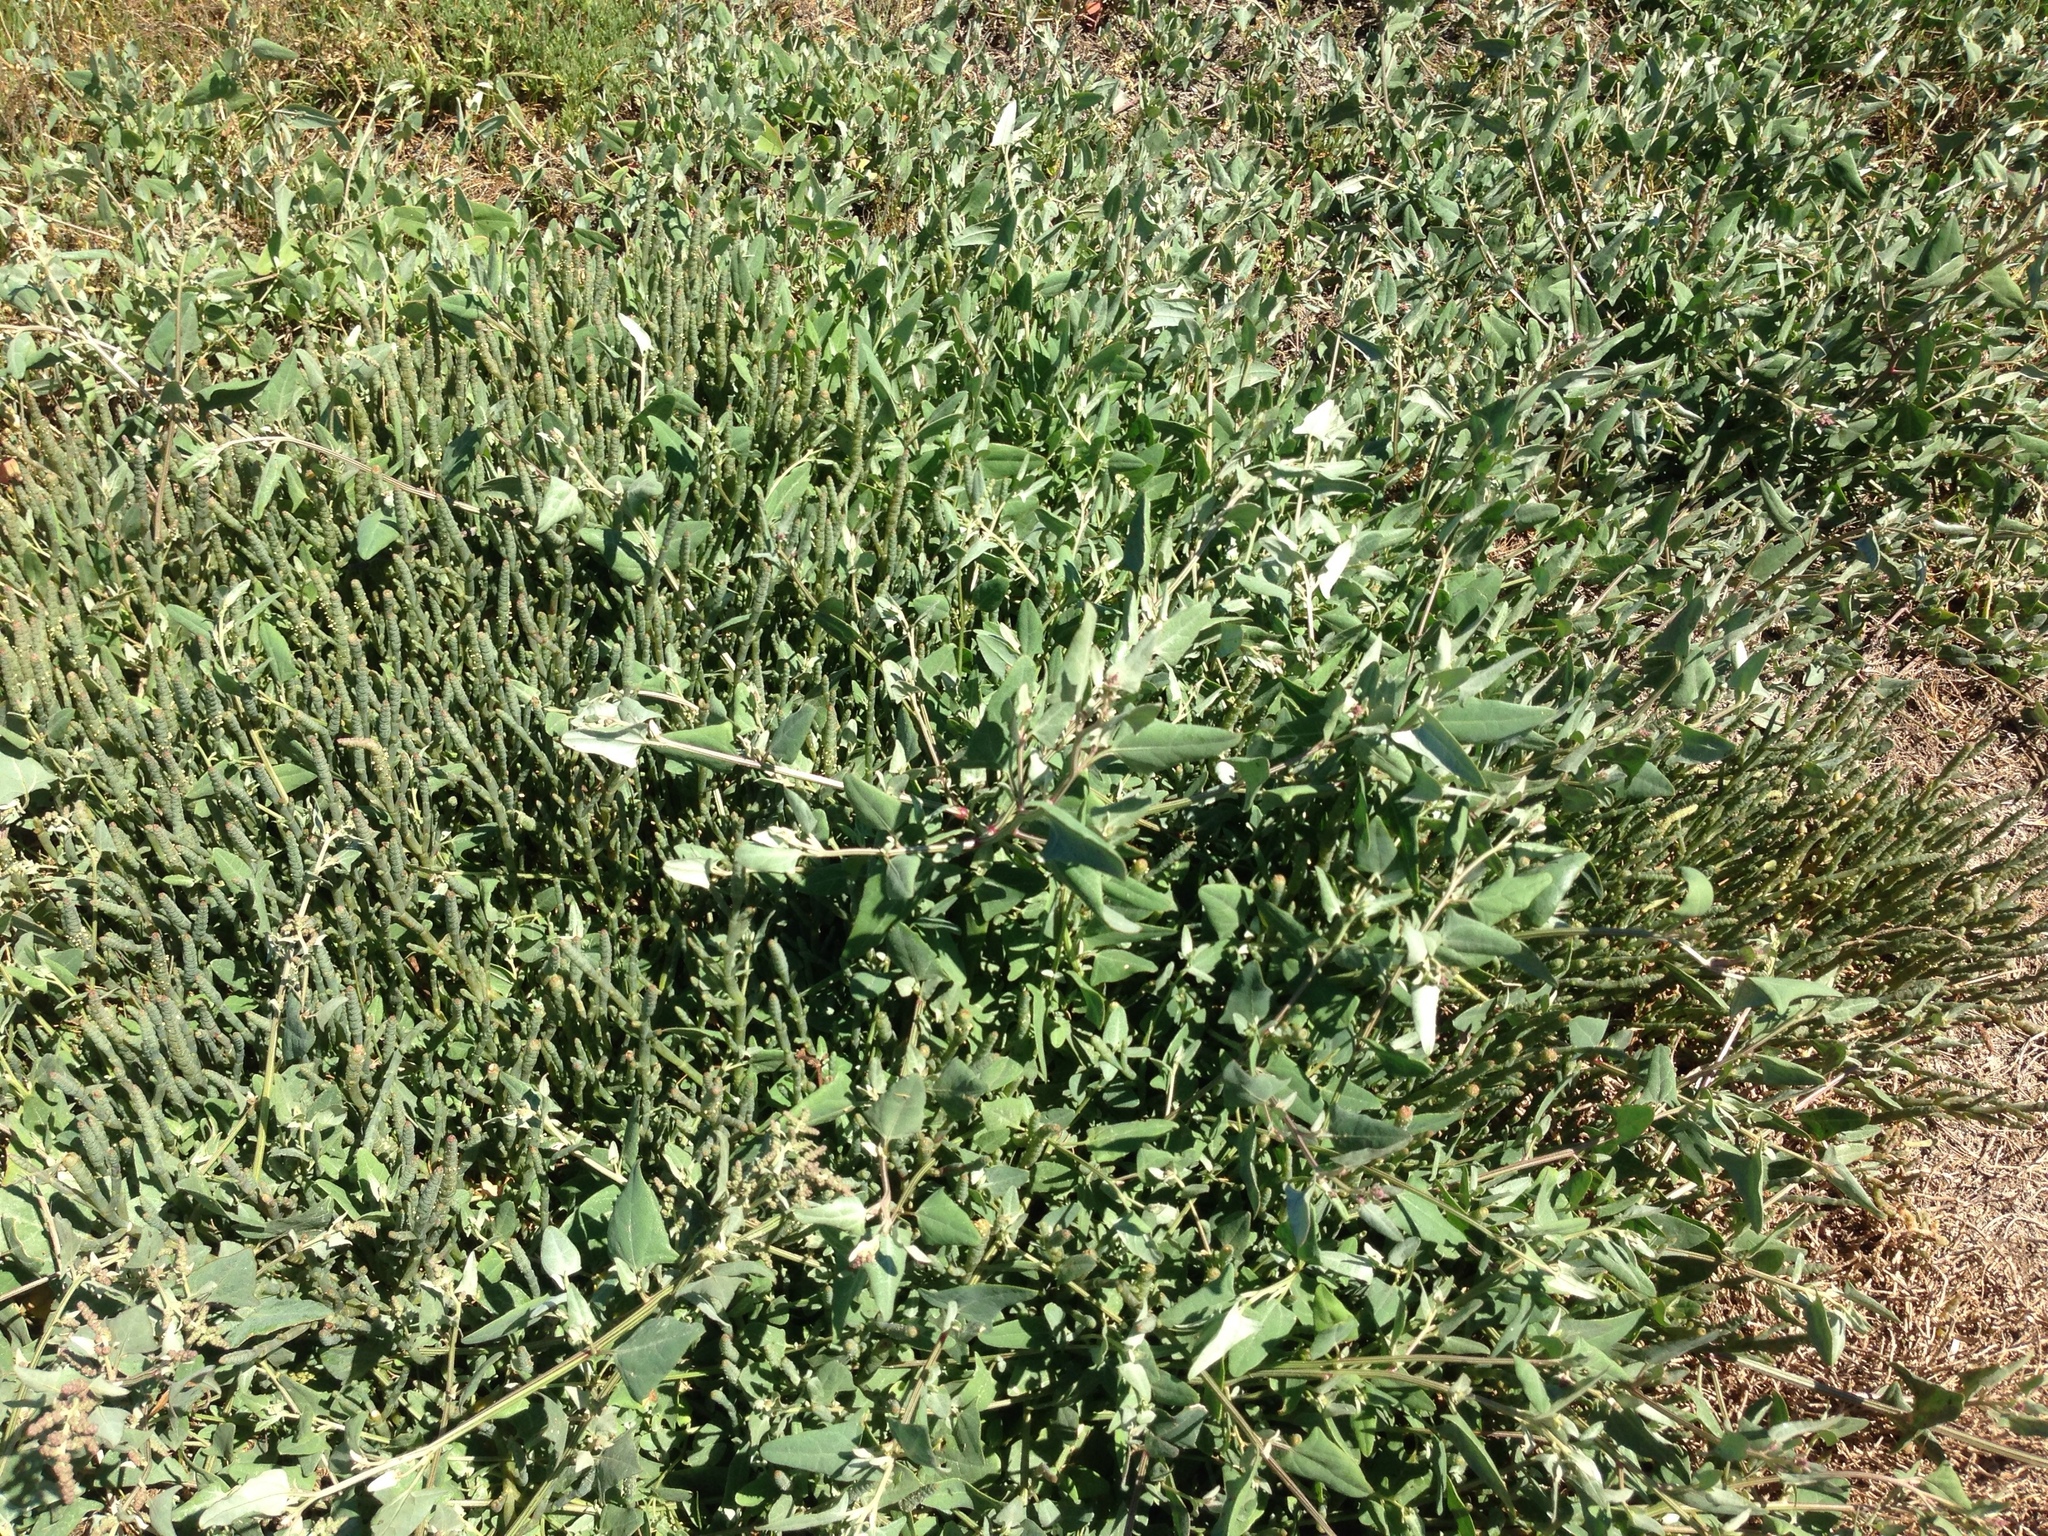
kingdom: Plantae
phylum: Tracheophyta
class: Magnoliopsida
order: Caryophyllales
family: Amaranthaceae
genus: Atriplex
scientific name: Atriplex prostrata
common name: Spear-leaved orache
